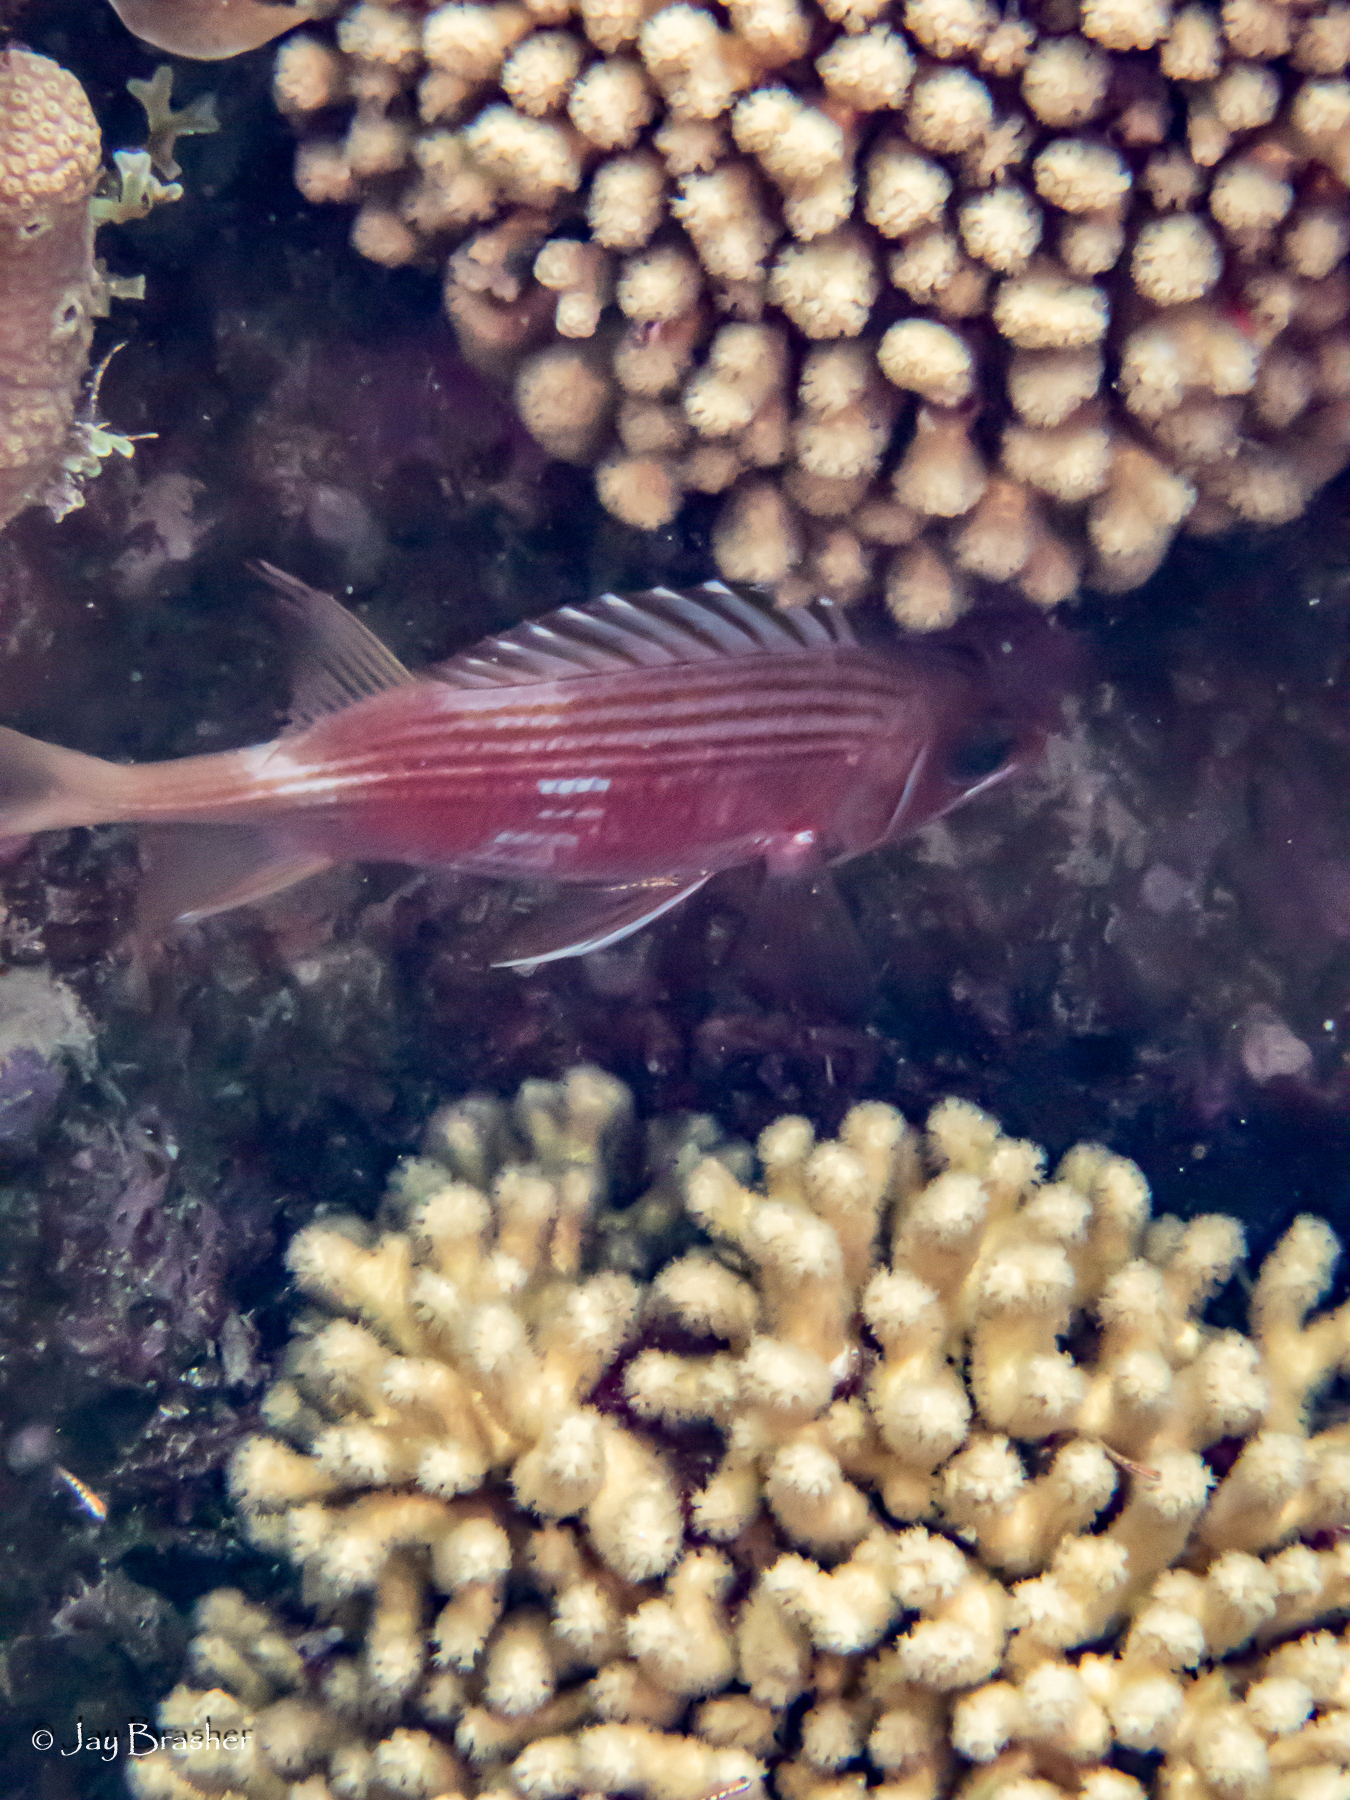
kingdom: Animalia
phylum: Chordata
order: Beryciformes
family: Holocentridae
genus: Holocentrus
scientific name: Holocentrus rufus
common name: Longspine squirrelfish
